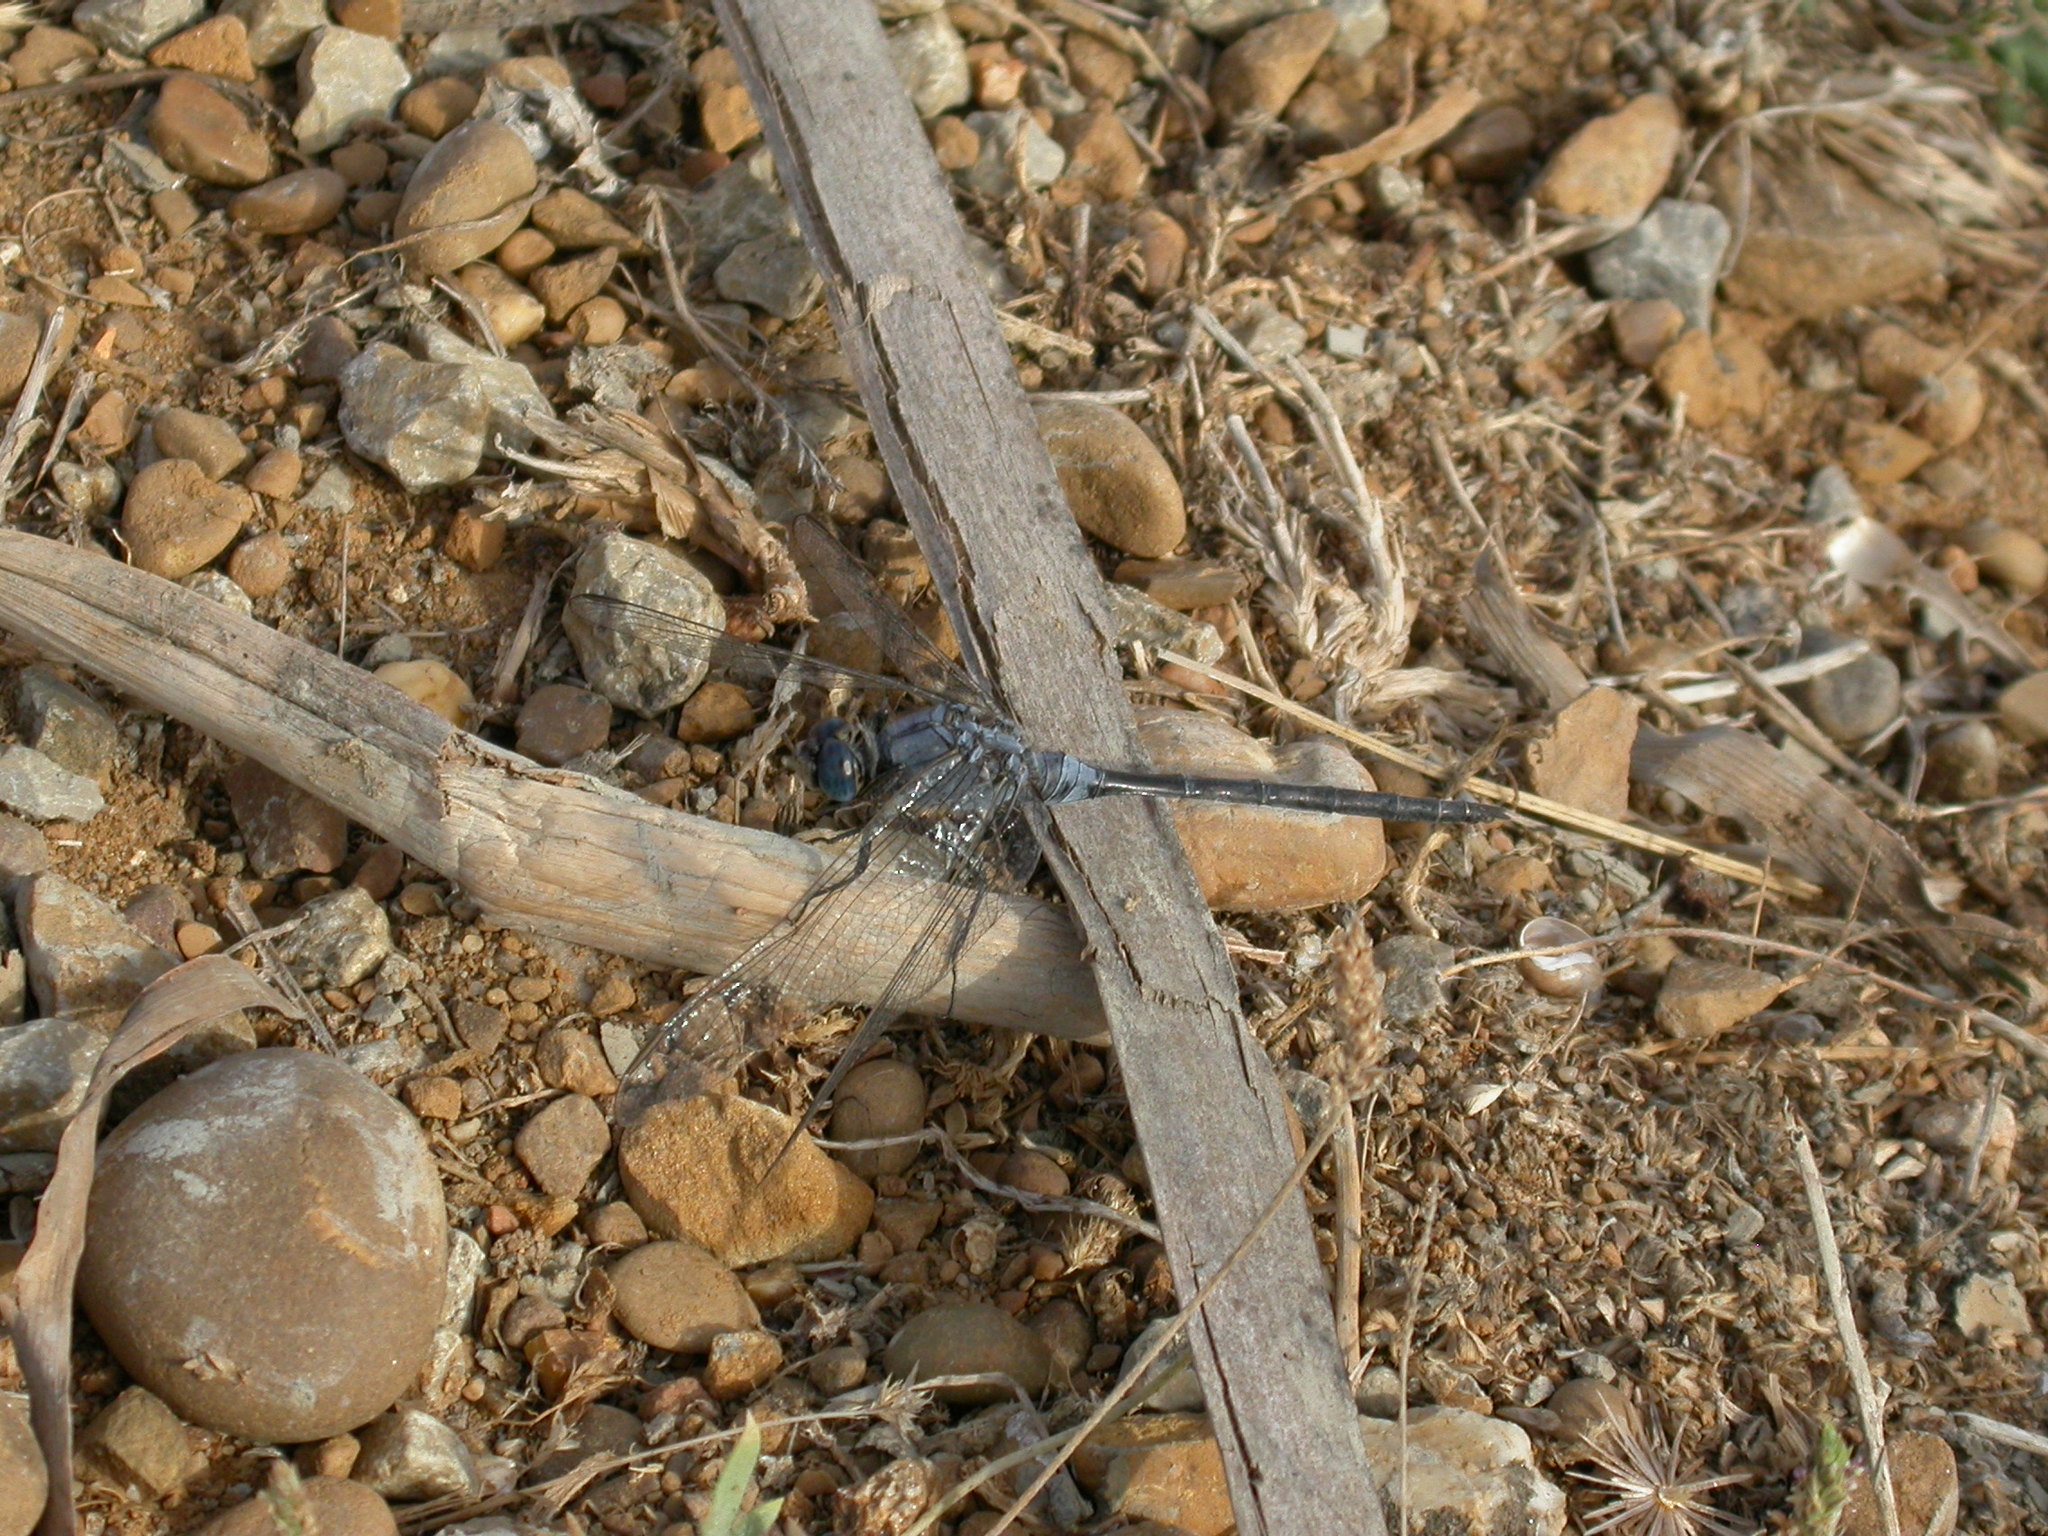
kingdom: Animalia
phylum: Arthropoda
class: Insecta
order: Odonata
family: Libellulidae
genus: Orthetrum
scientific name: Orthetrum trinacria
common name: Long skimmer
